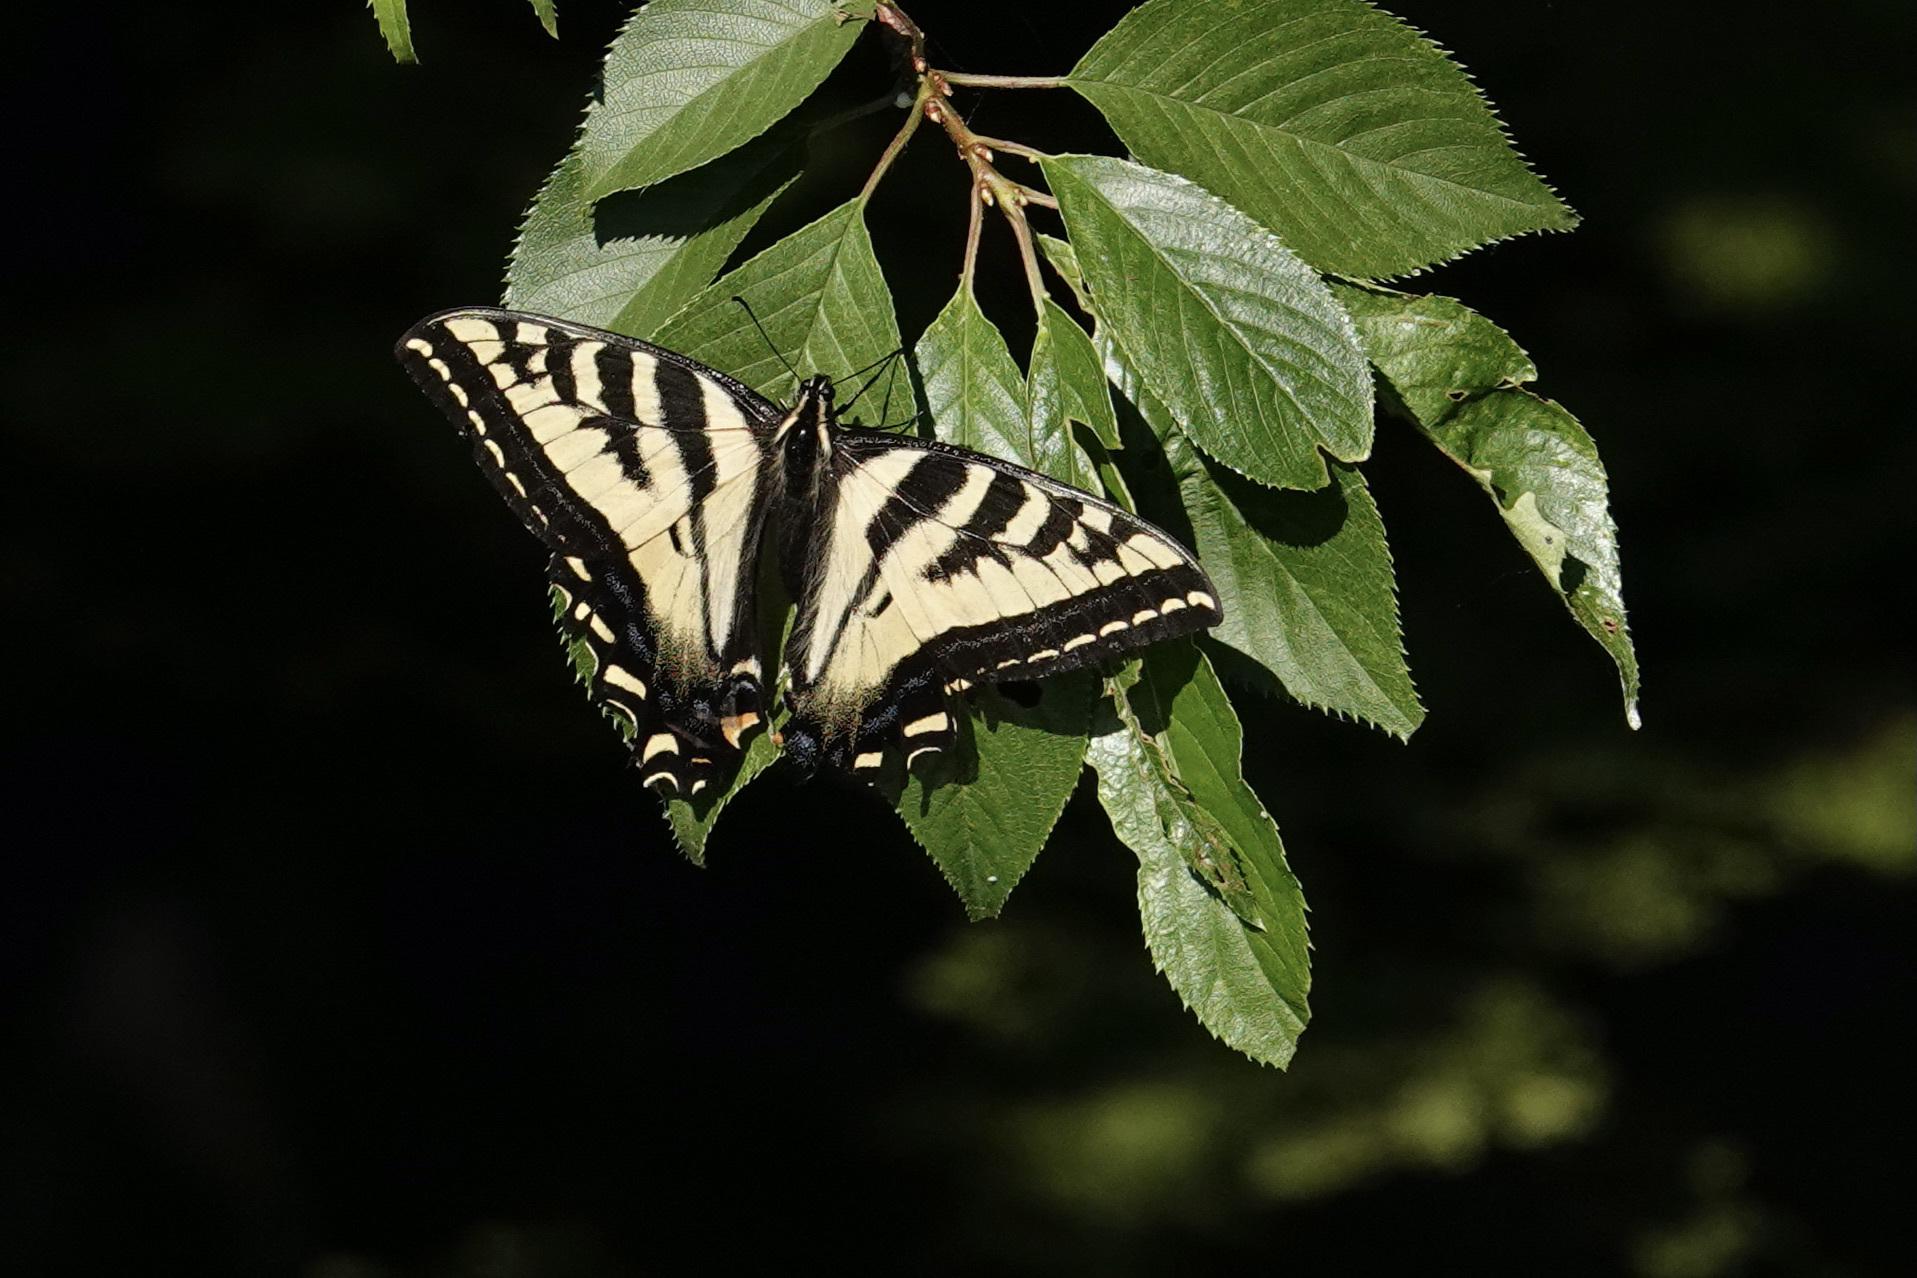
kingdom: Animalia
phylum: Arthropoda
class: Insecta
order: Lepidoptera
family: Papilionidae
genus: Papilio
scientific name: Papilio rutulus
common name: Western tiger swallowtail
